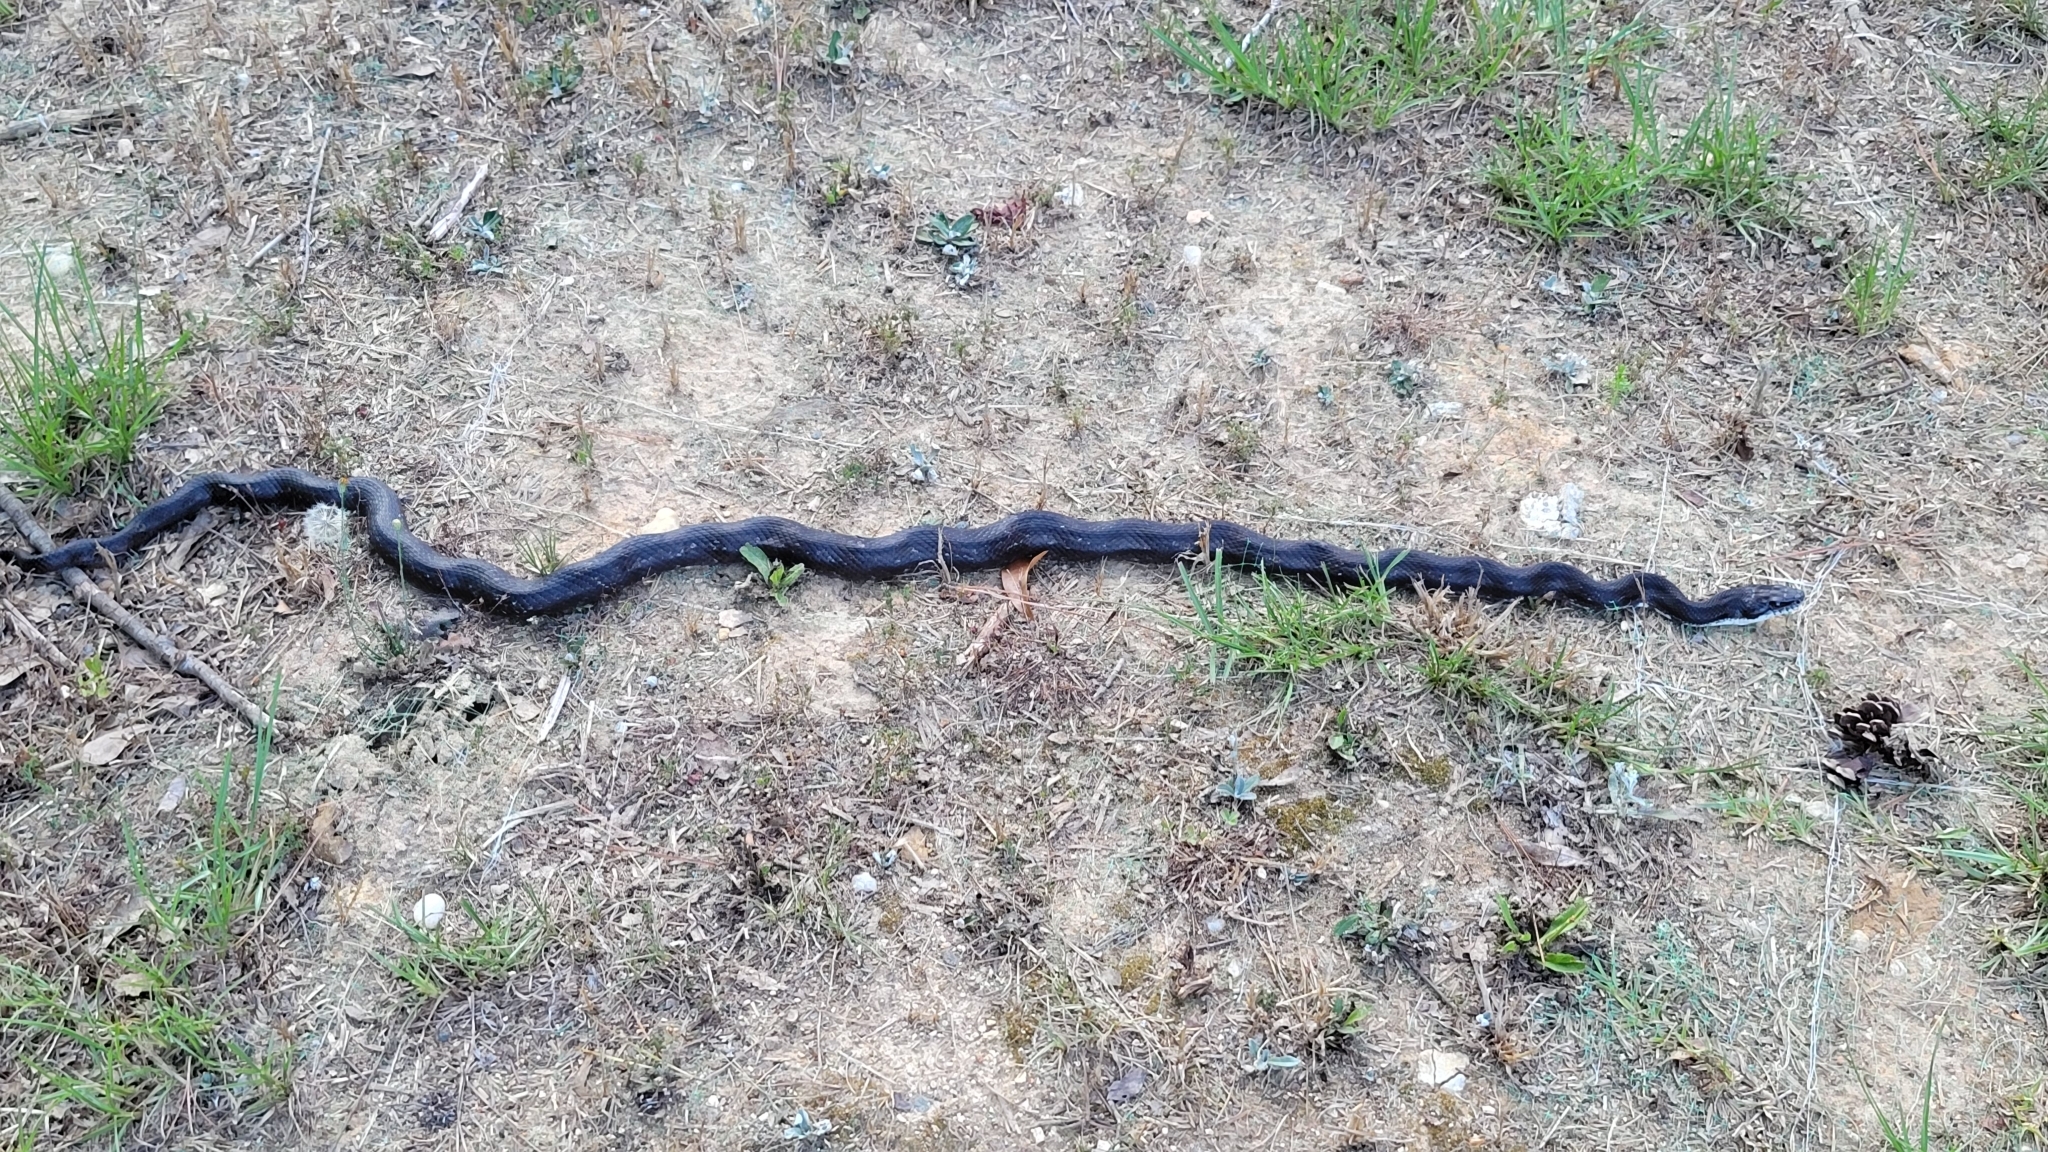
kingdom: Animalia
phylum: Chordata
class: Squamata
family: Colubridae
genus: Pantherophis
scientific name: Pantherophis alleghaniensis
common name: Eastern rat snake
